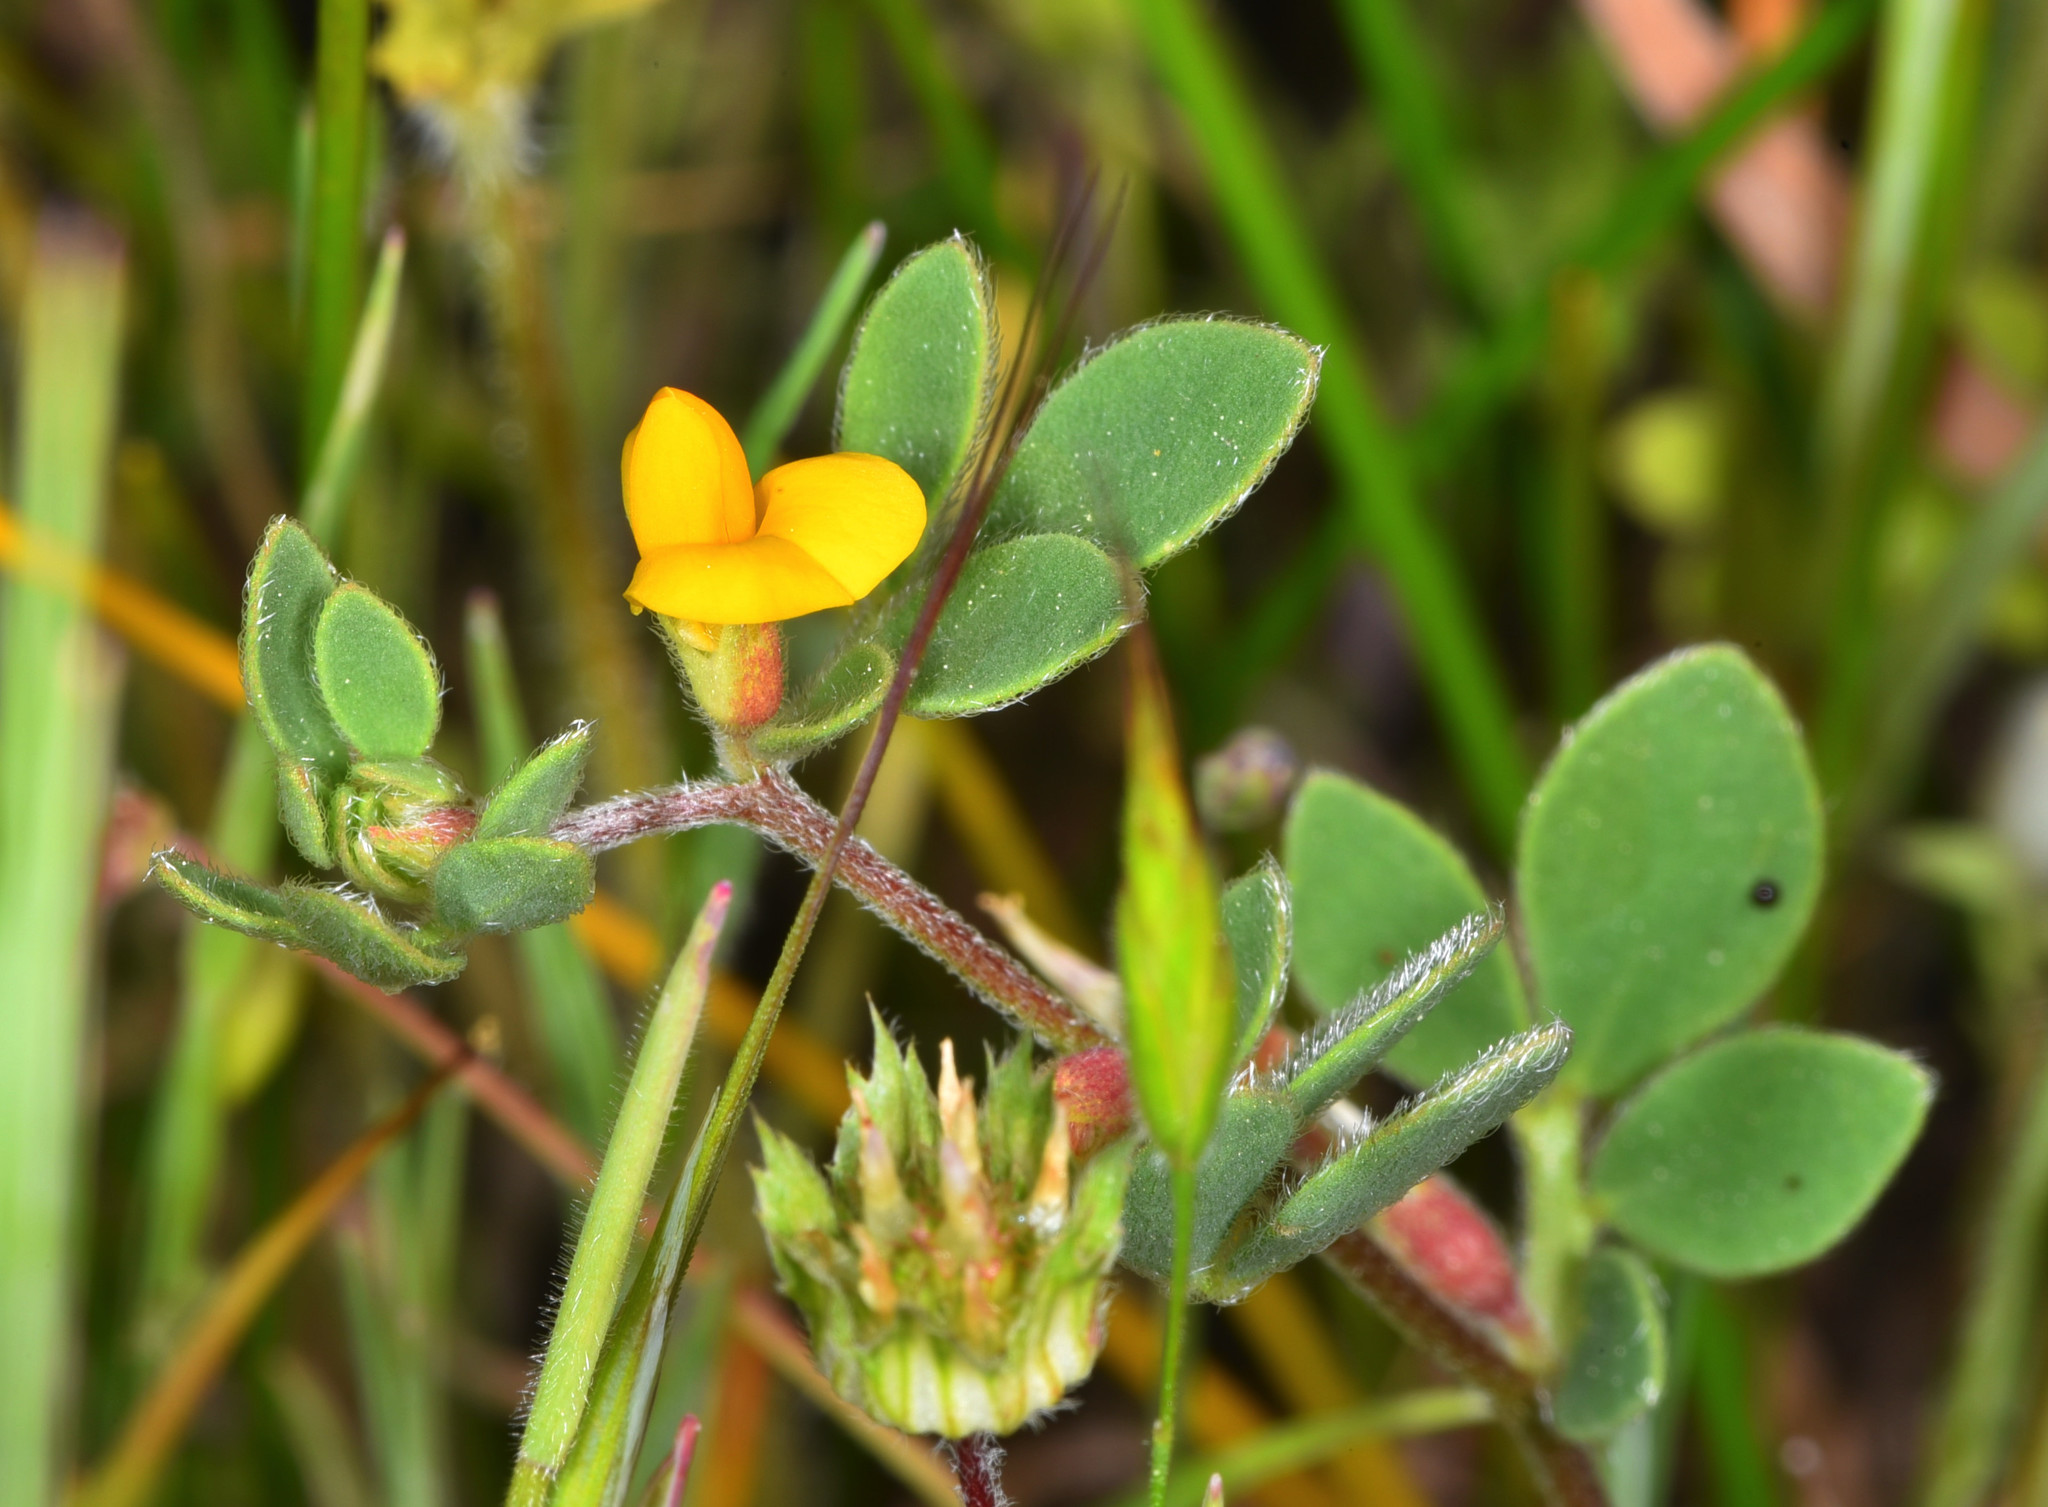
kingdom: Plantae
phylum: Tracheophyta
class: Magnoliopsida
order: Fabales
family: Fabaceae
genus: Acmispon
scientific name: Acmispon wrangelianus
